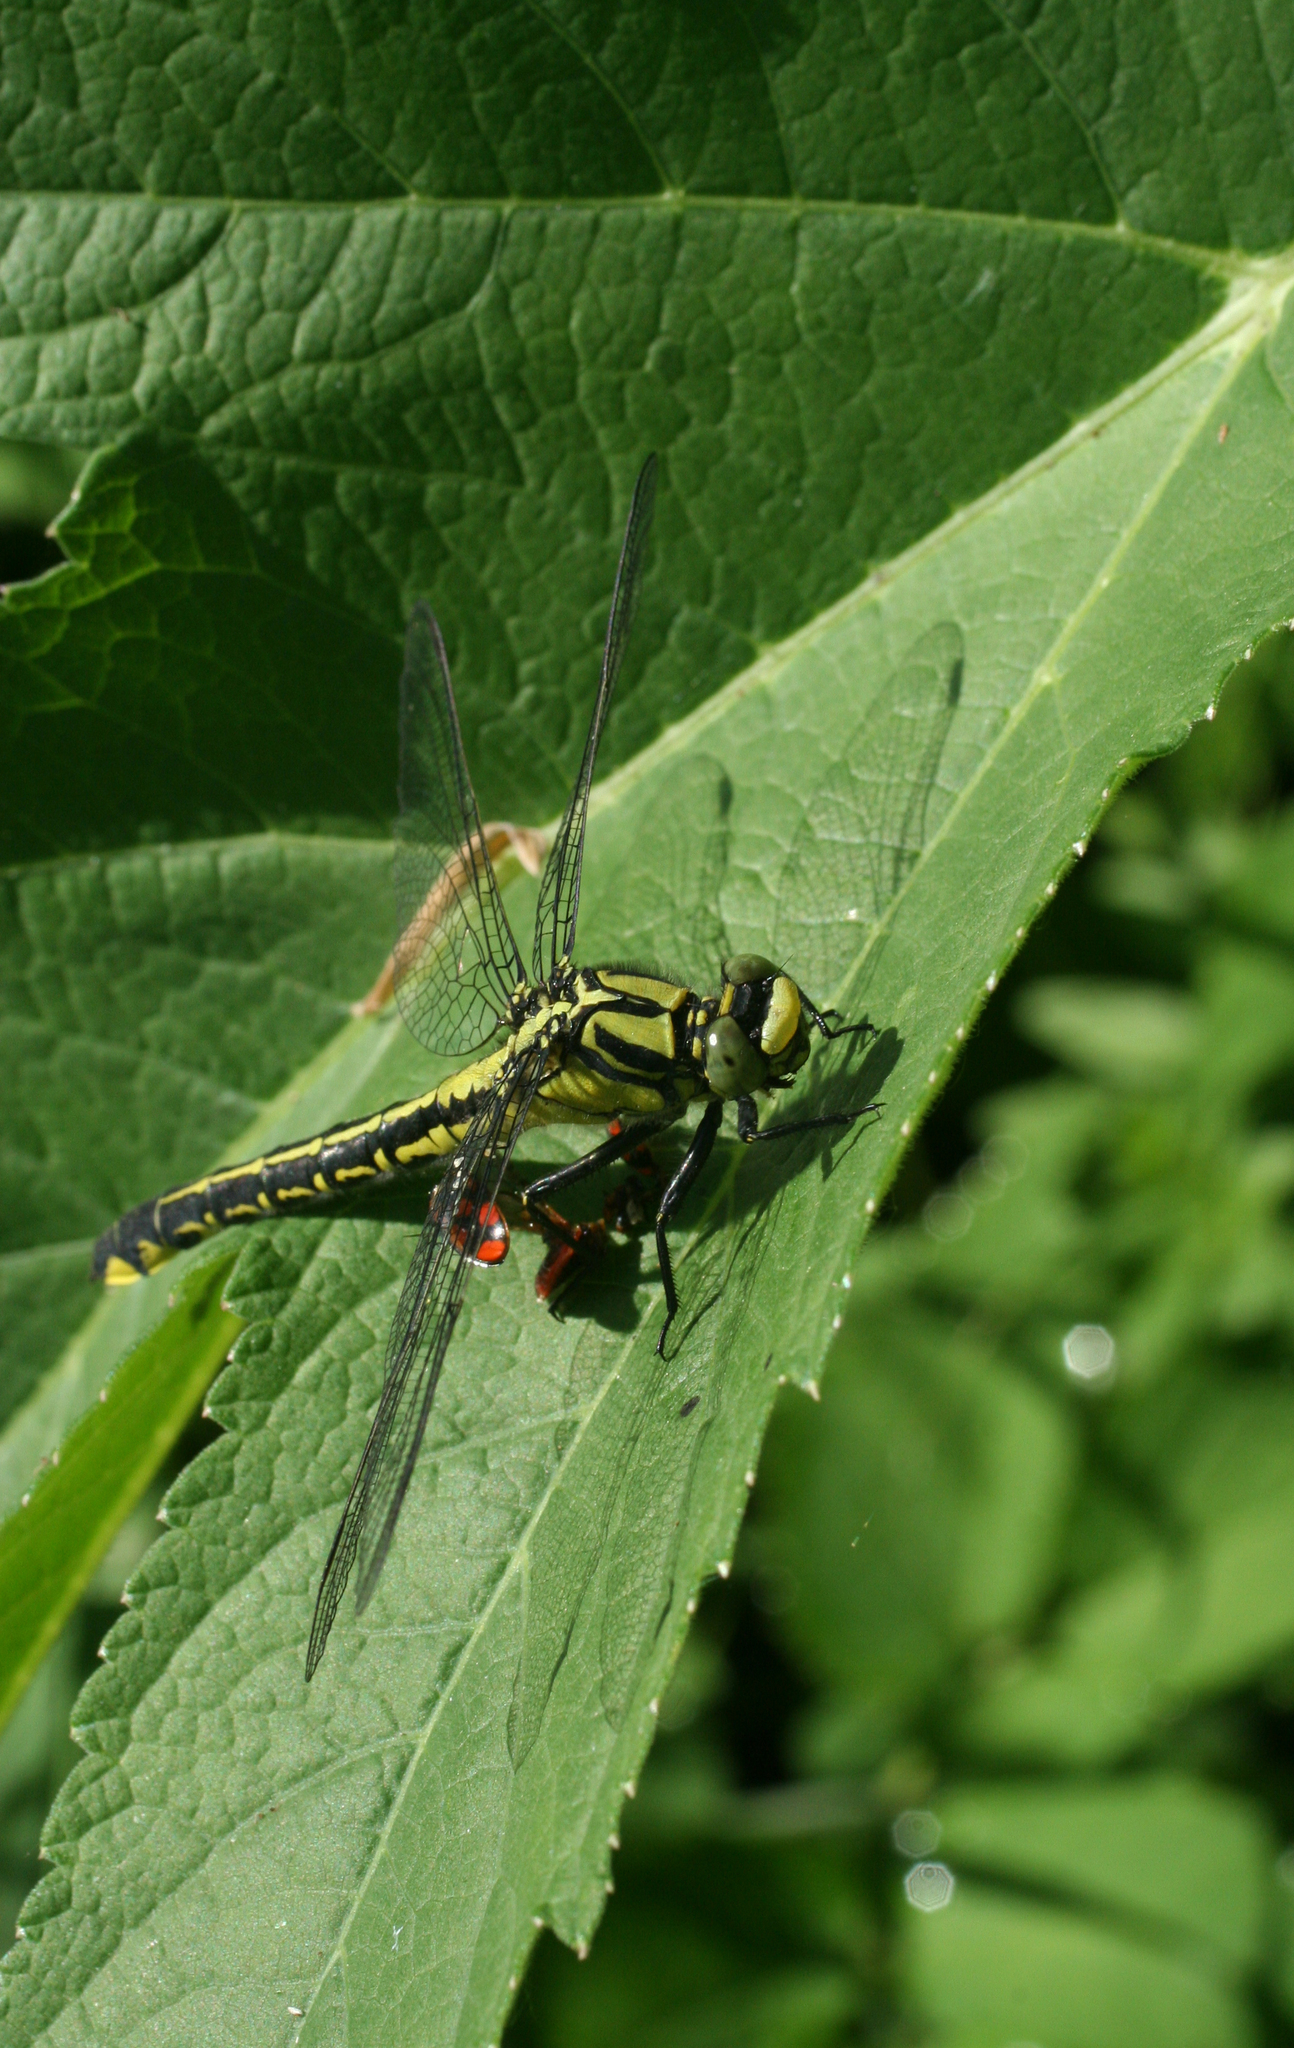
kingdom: Animalia
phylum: Arthropoda
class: Insecta
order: Odonata
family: Gomphidae
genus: Gomphus
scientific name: Gomphus vulgatissimus
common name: Club-tailed dragonfly
